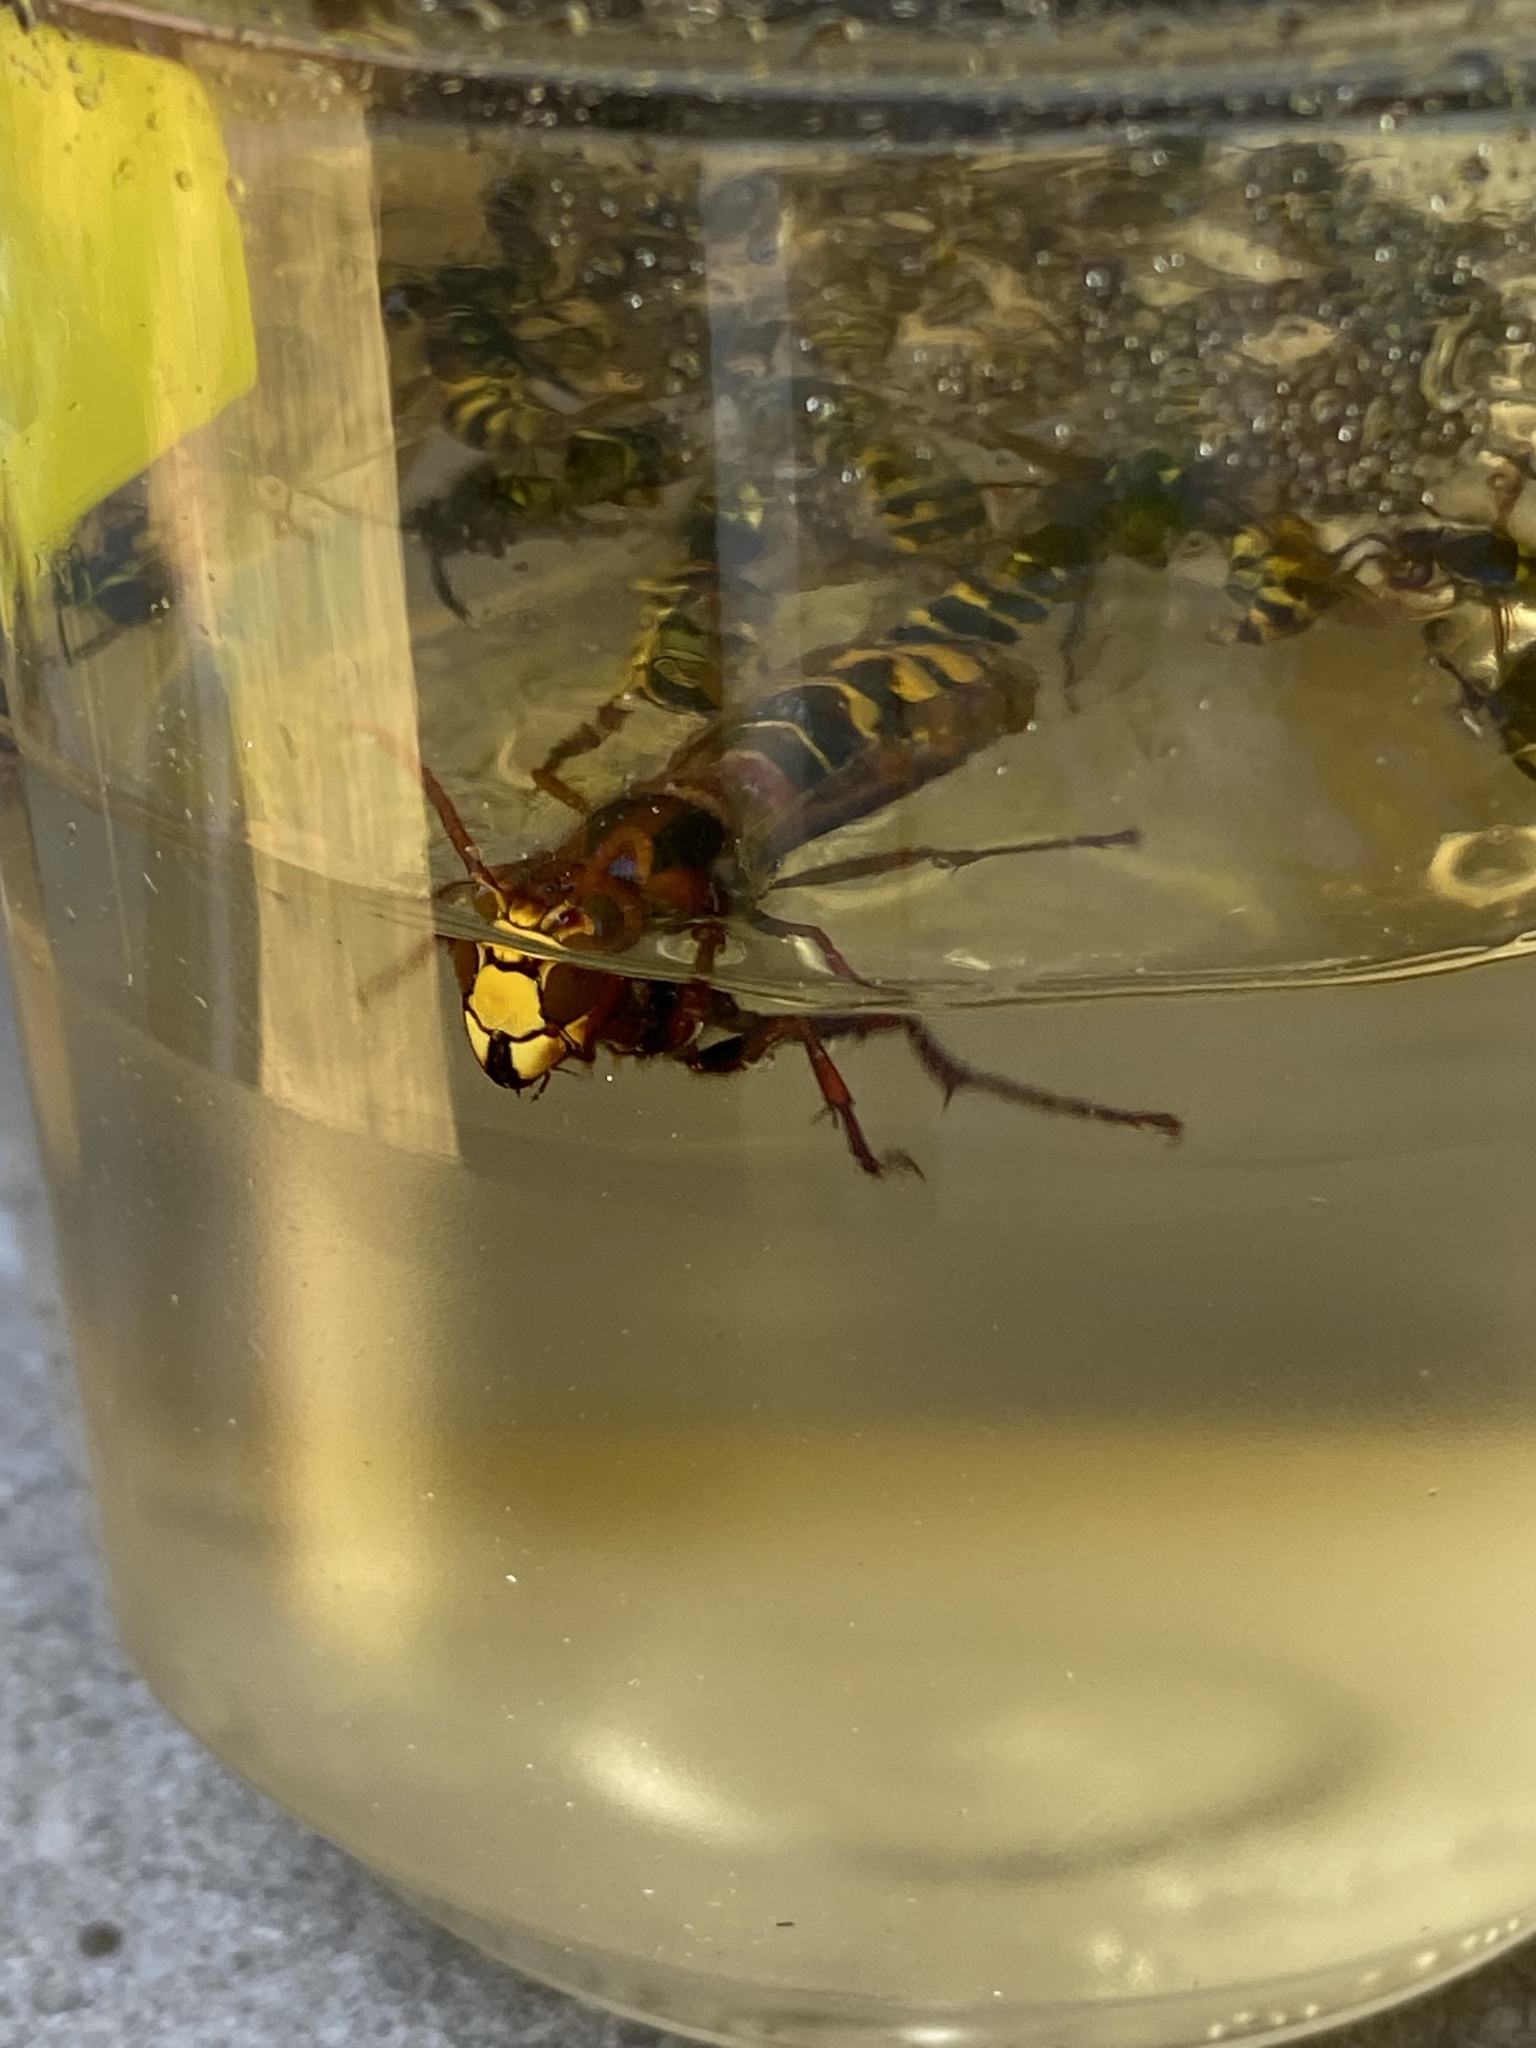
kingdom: Animalia
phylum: Arthropoda
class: Insecta
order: Hymenoptera
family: Vespidae
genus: Vespa
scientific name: Vespa crabro
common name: Hornet
